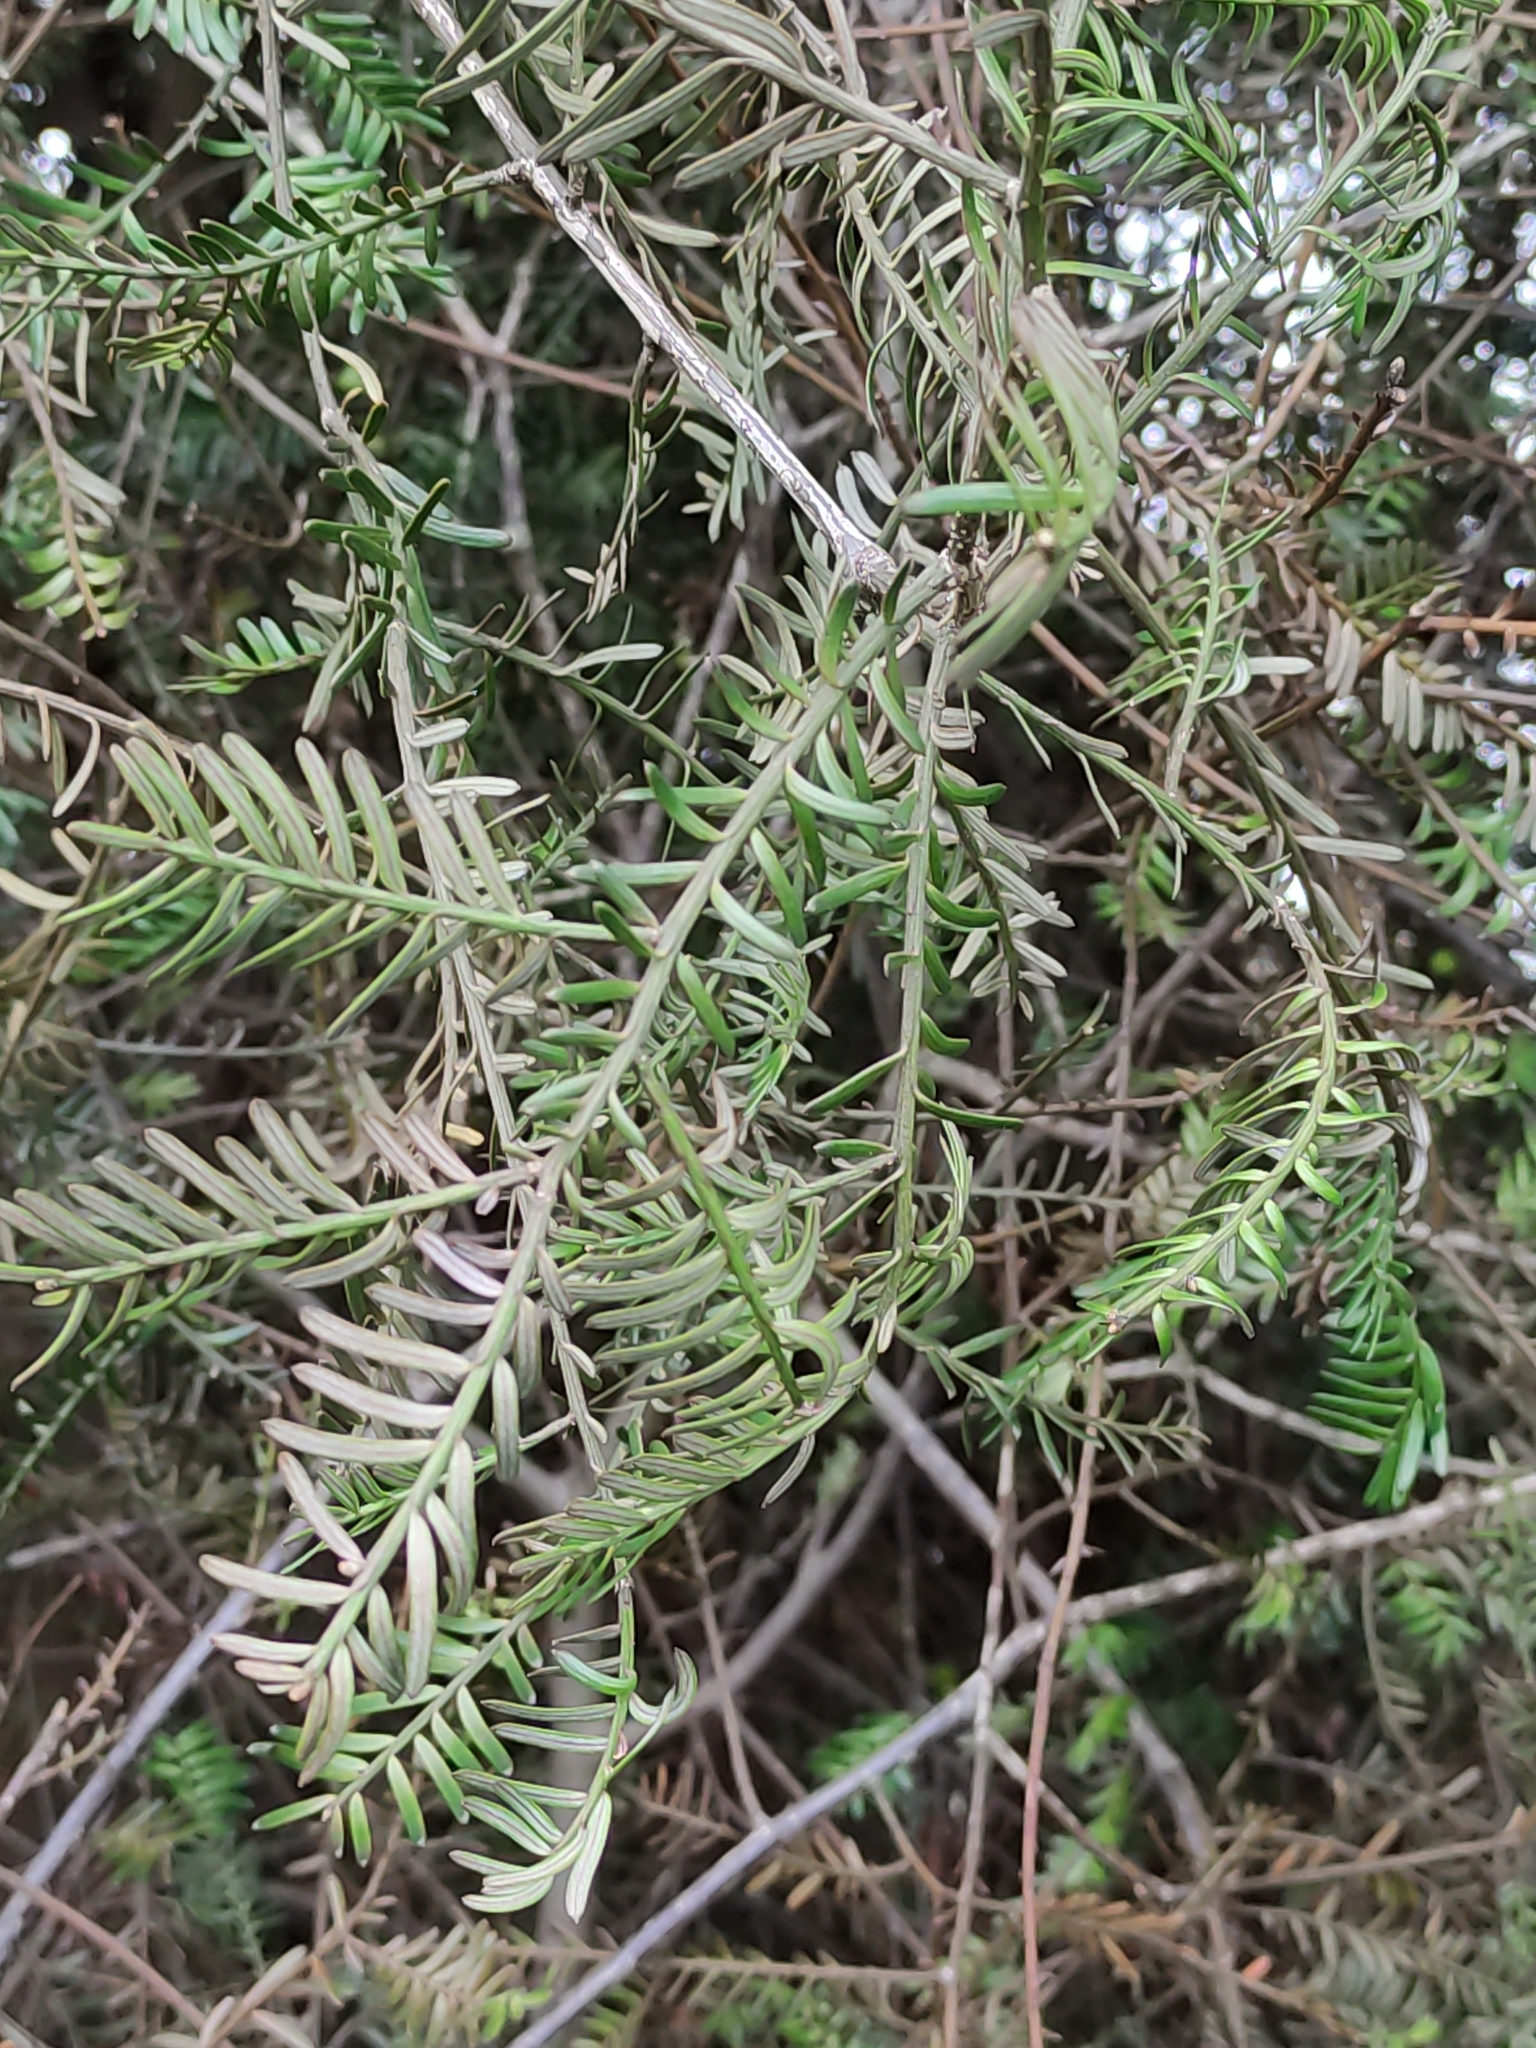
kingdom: Plantae
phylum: Tracheophyta
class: Pinopsida
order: Pinales
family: Podocarpaceae
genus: Prumnopitys
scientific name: Prumnopitys taxifolia
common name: Matai
